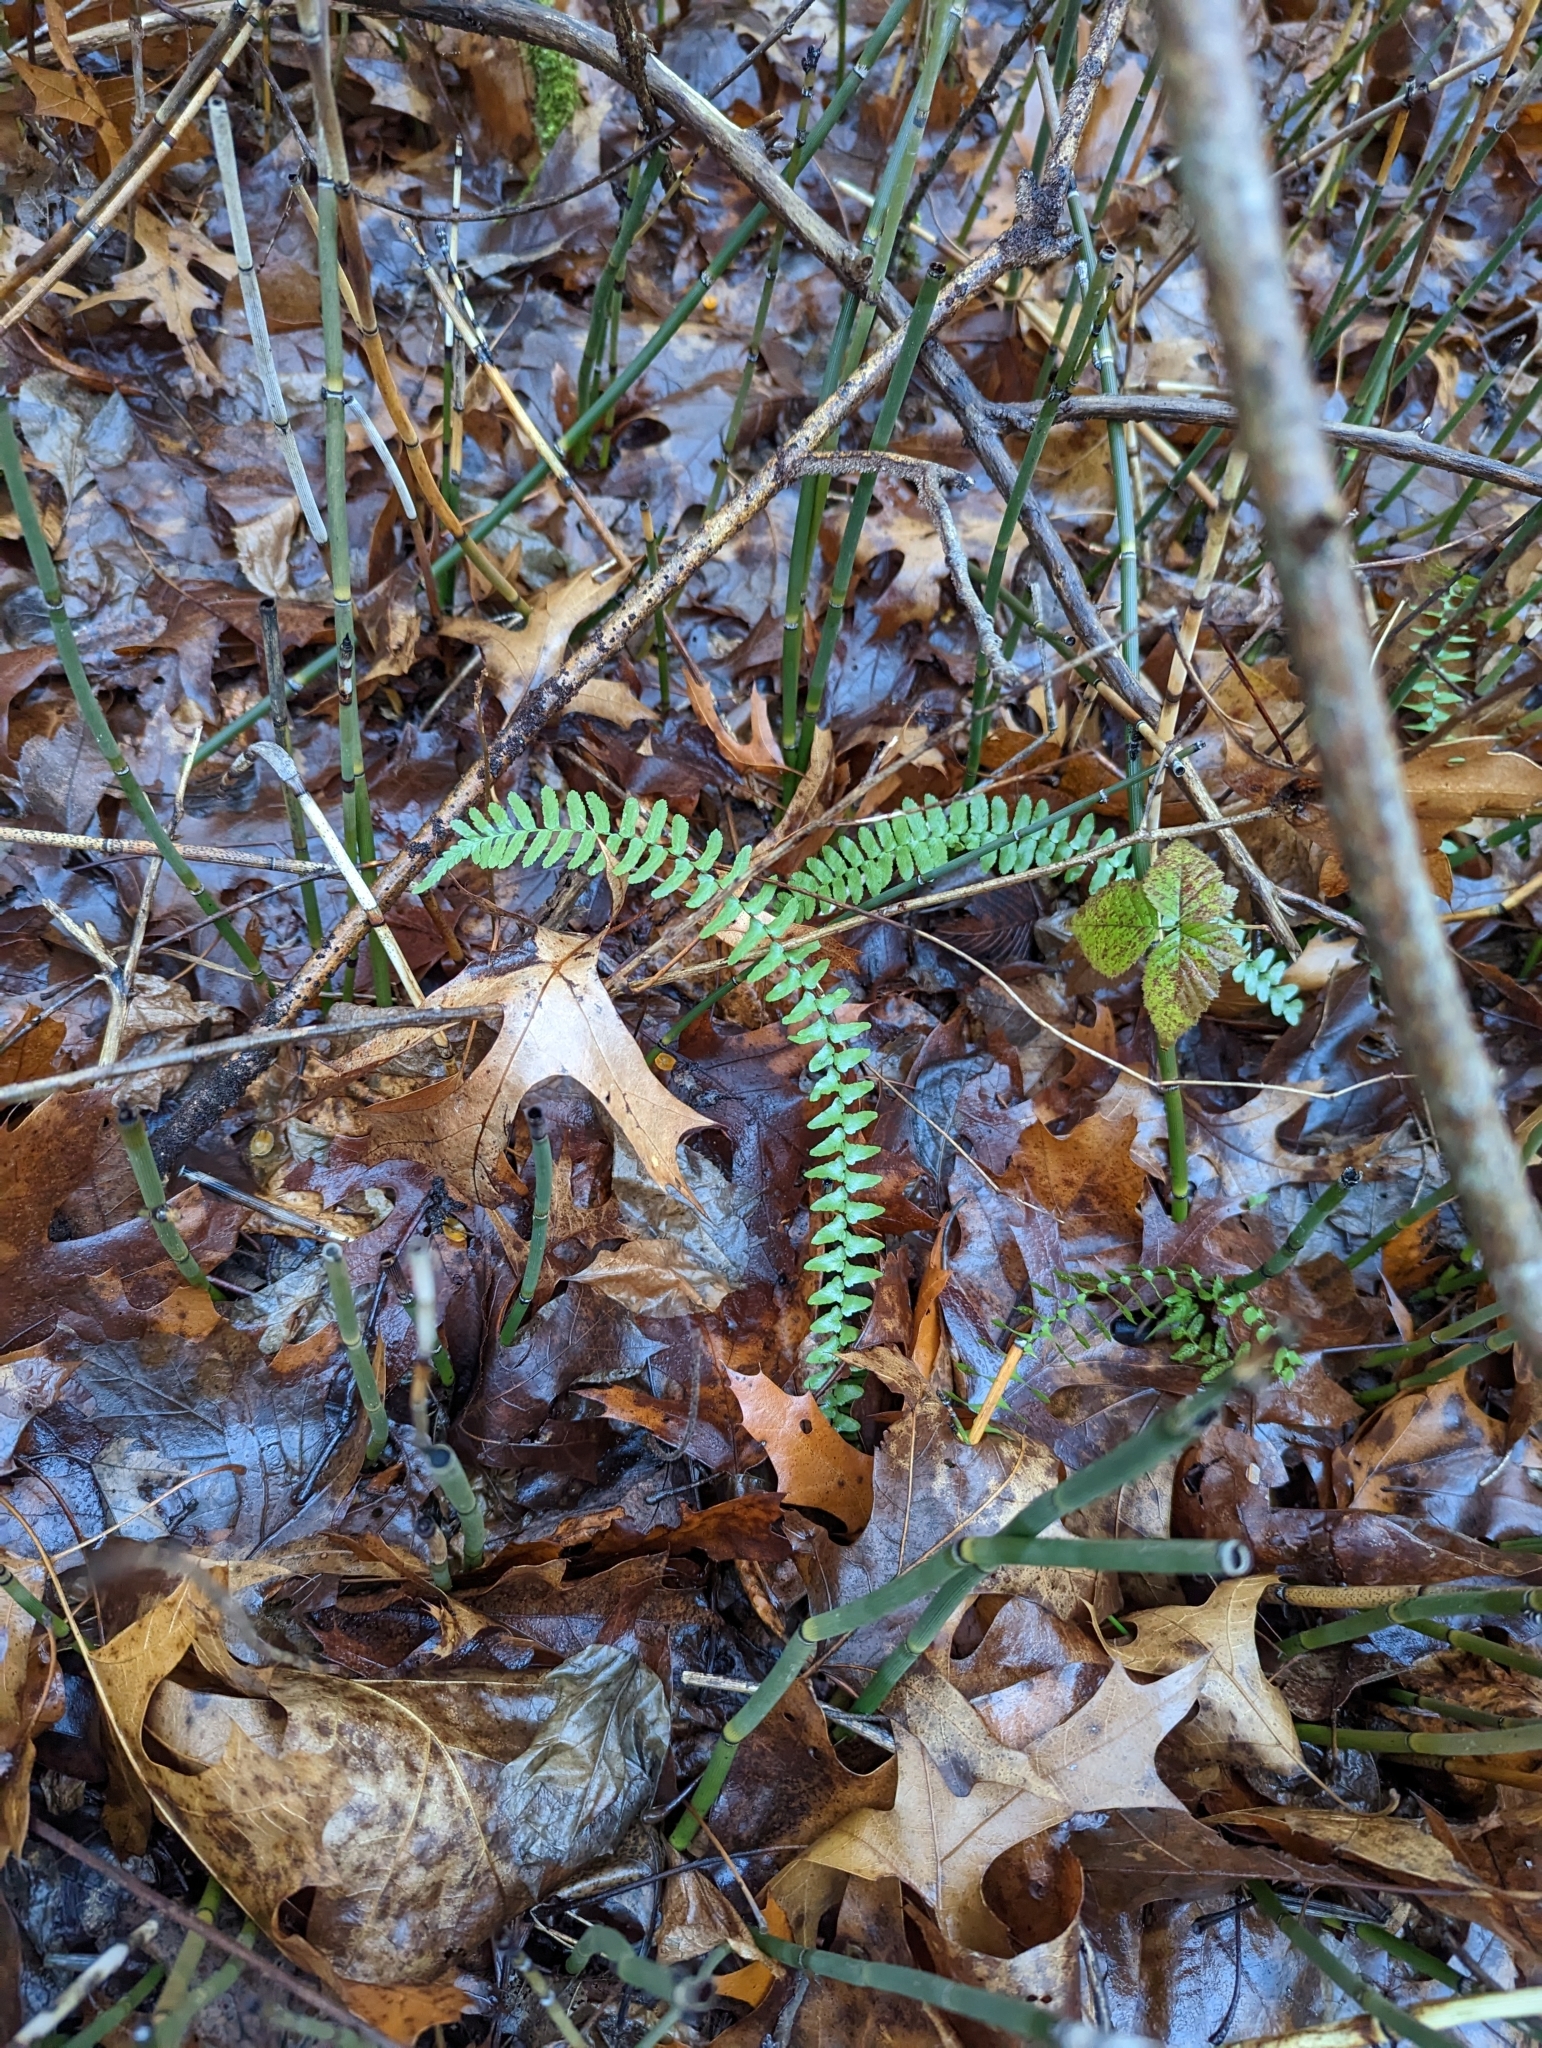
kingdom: Plantae
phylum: Tracheophyta
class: Polypodiopsida
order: Polypodiales
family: Aspleniaceae
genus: Asplenium
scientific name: Asplenium platyneuron
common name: Ebony spleenwort
